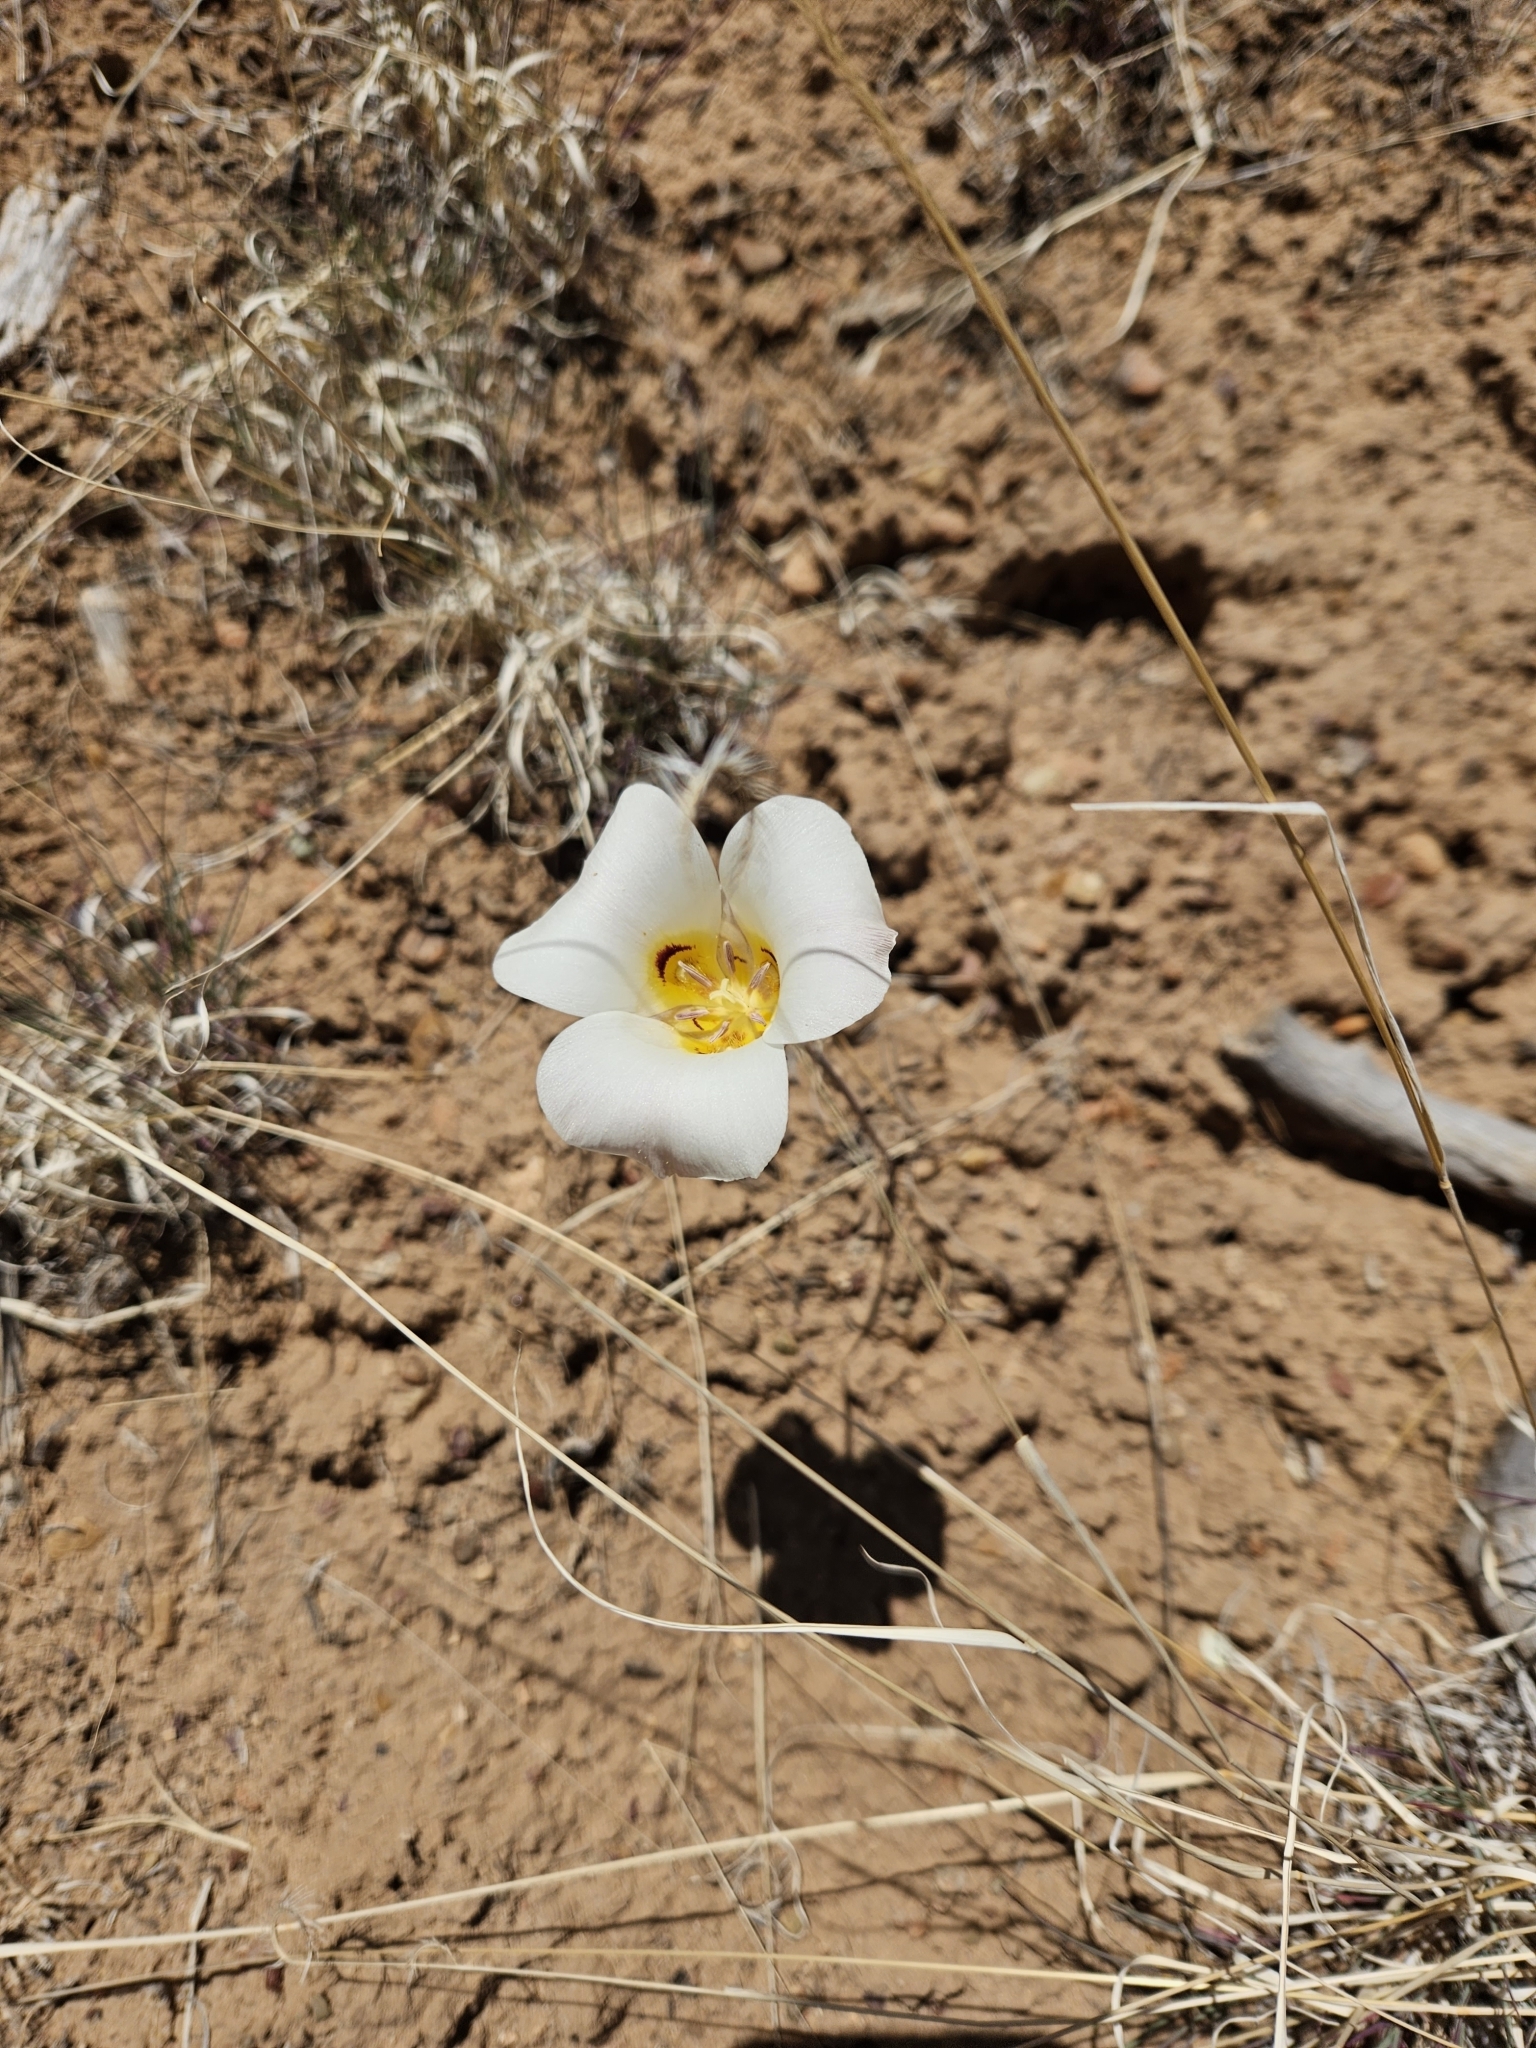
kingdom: Plantae
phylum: Tracheophyta
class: Liliopsida
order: Liliales
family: Liliaceae
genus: Calochortus
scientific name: Calochortus nuttallii
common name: Sego-lily
